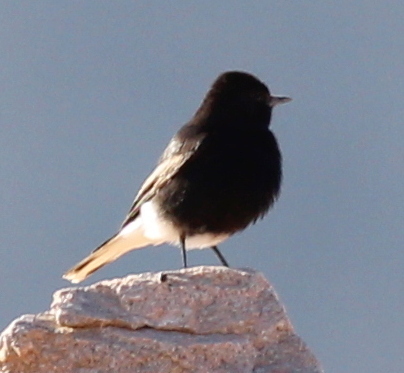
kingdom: Animalia
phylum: Chordata
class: Aves
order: Passeriformes
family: Muscicapidae
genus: Oenanthe
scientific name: Oenanthe leucopyga
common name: White-crowned wheatear
